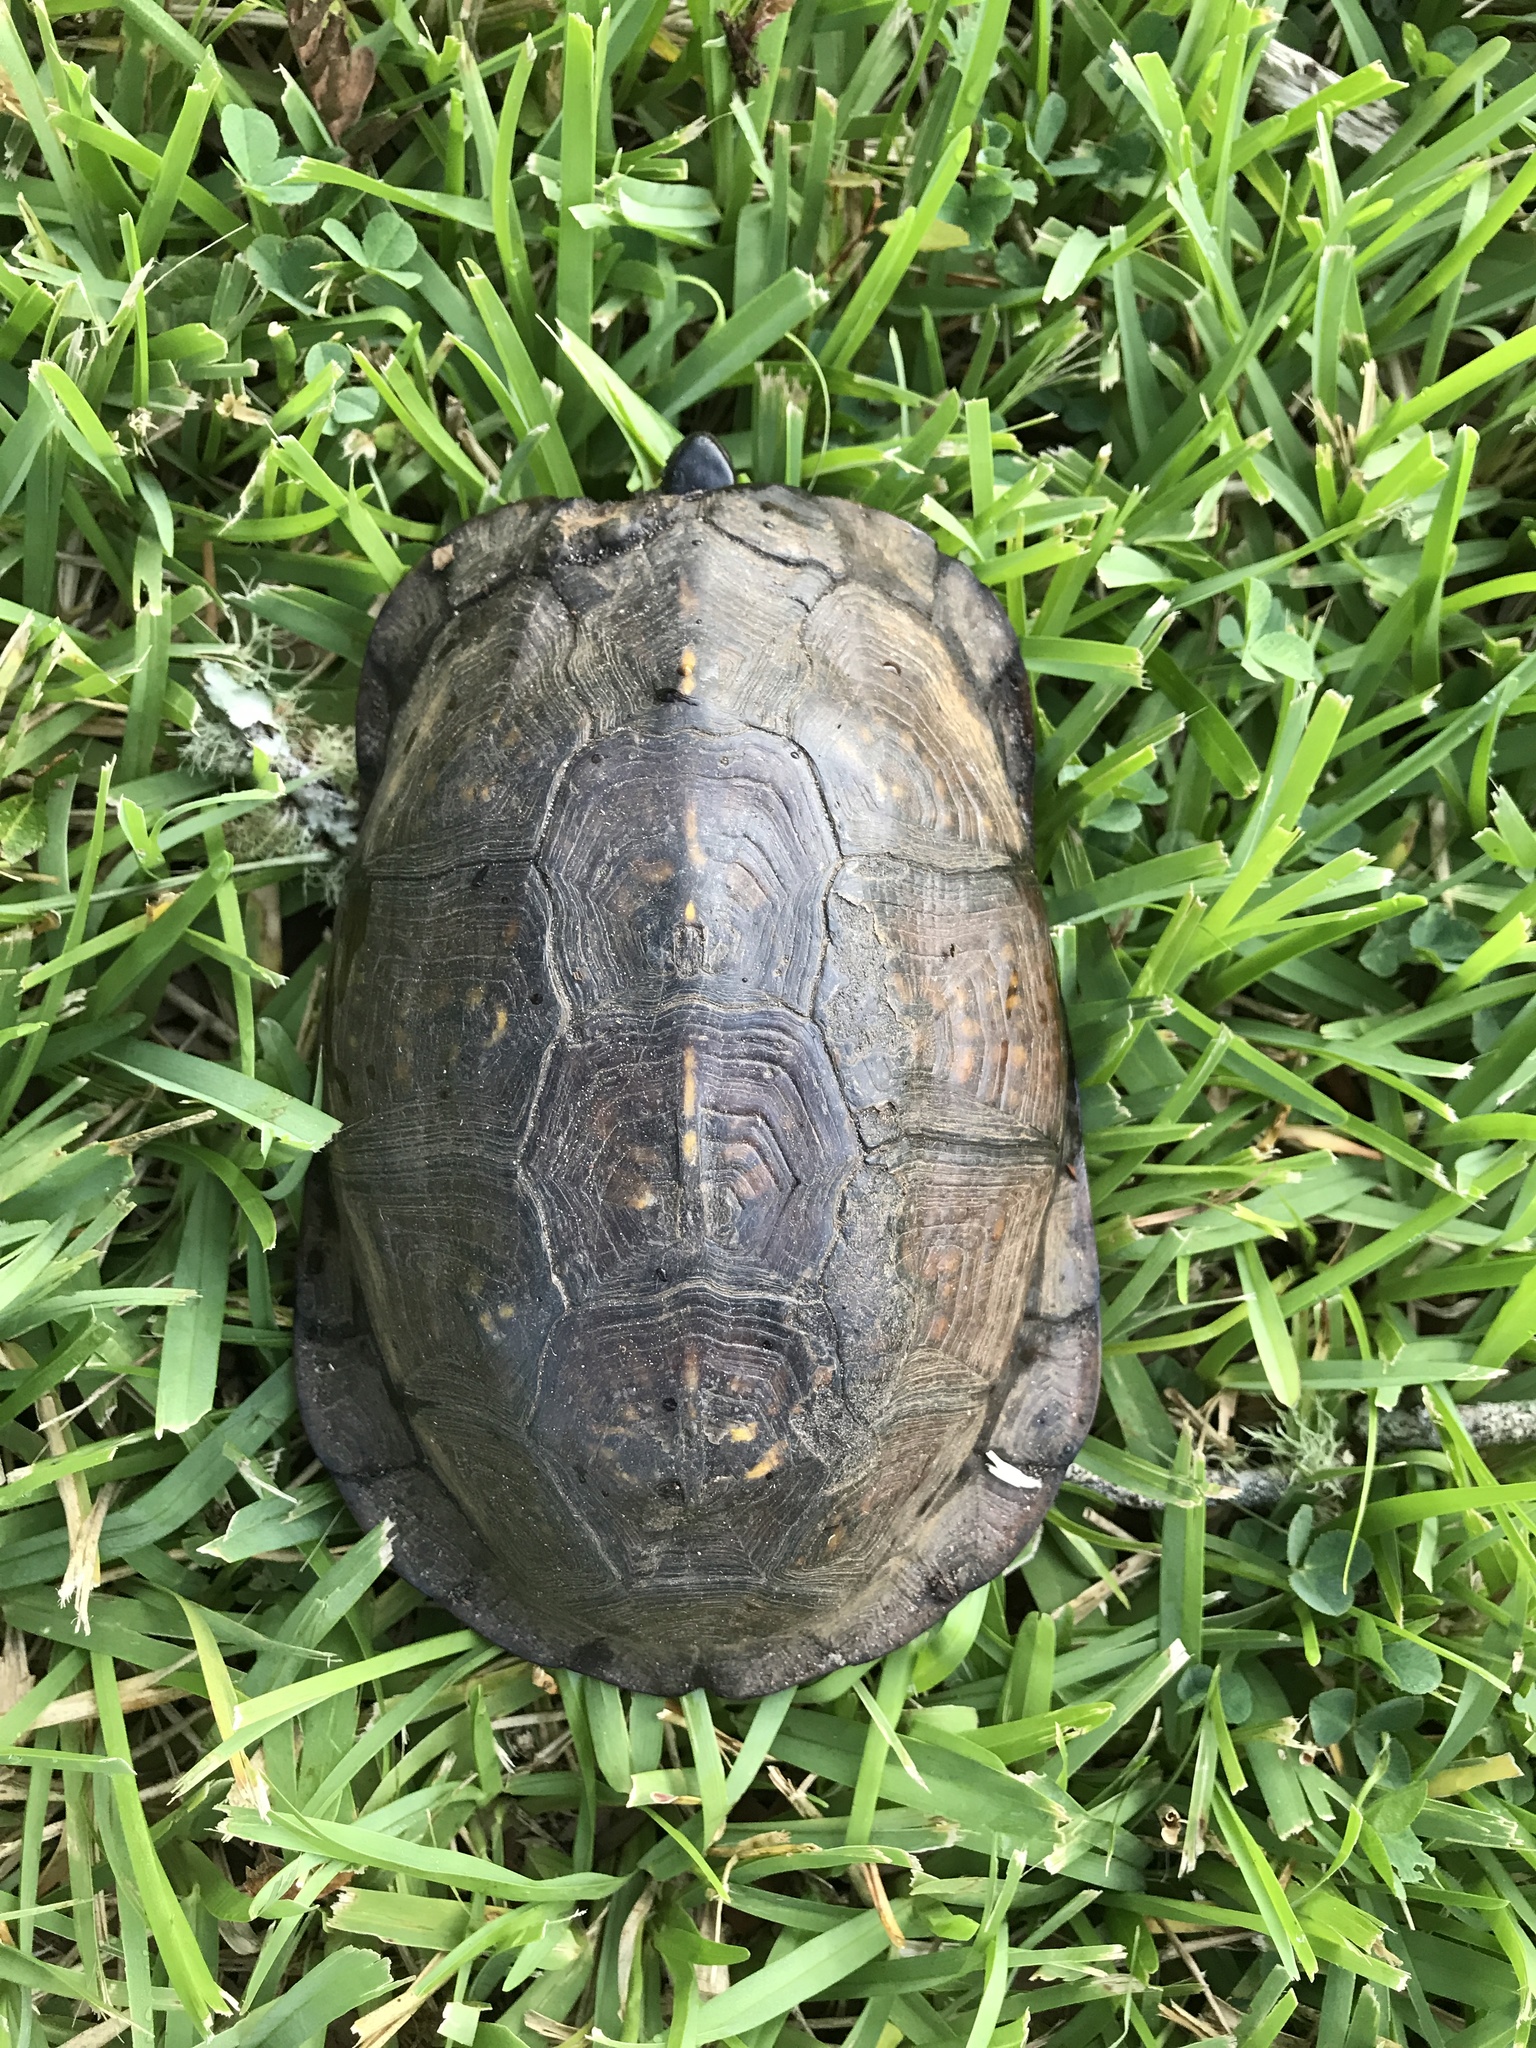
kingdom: Animalia
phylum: Chordata
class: Testudines
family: Emydidae
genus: Terrapene
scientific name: Terrapene carolina
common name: Common box turtle
